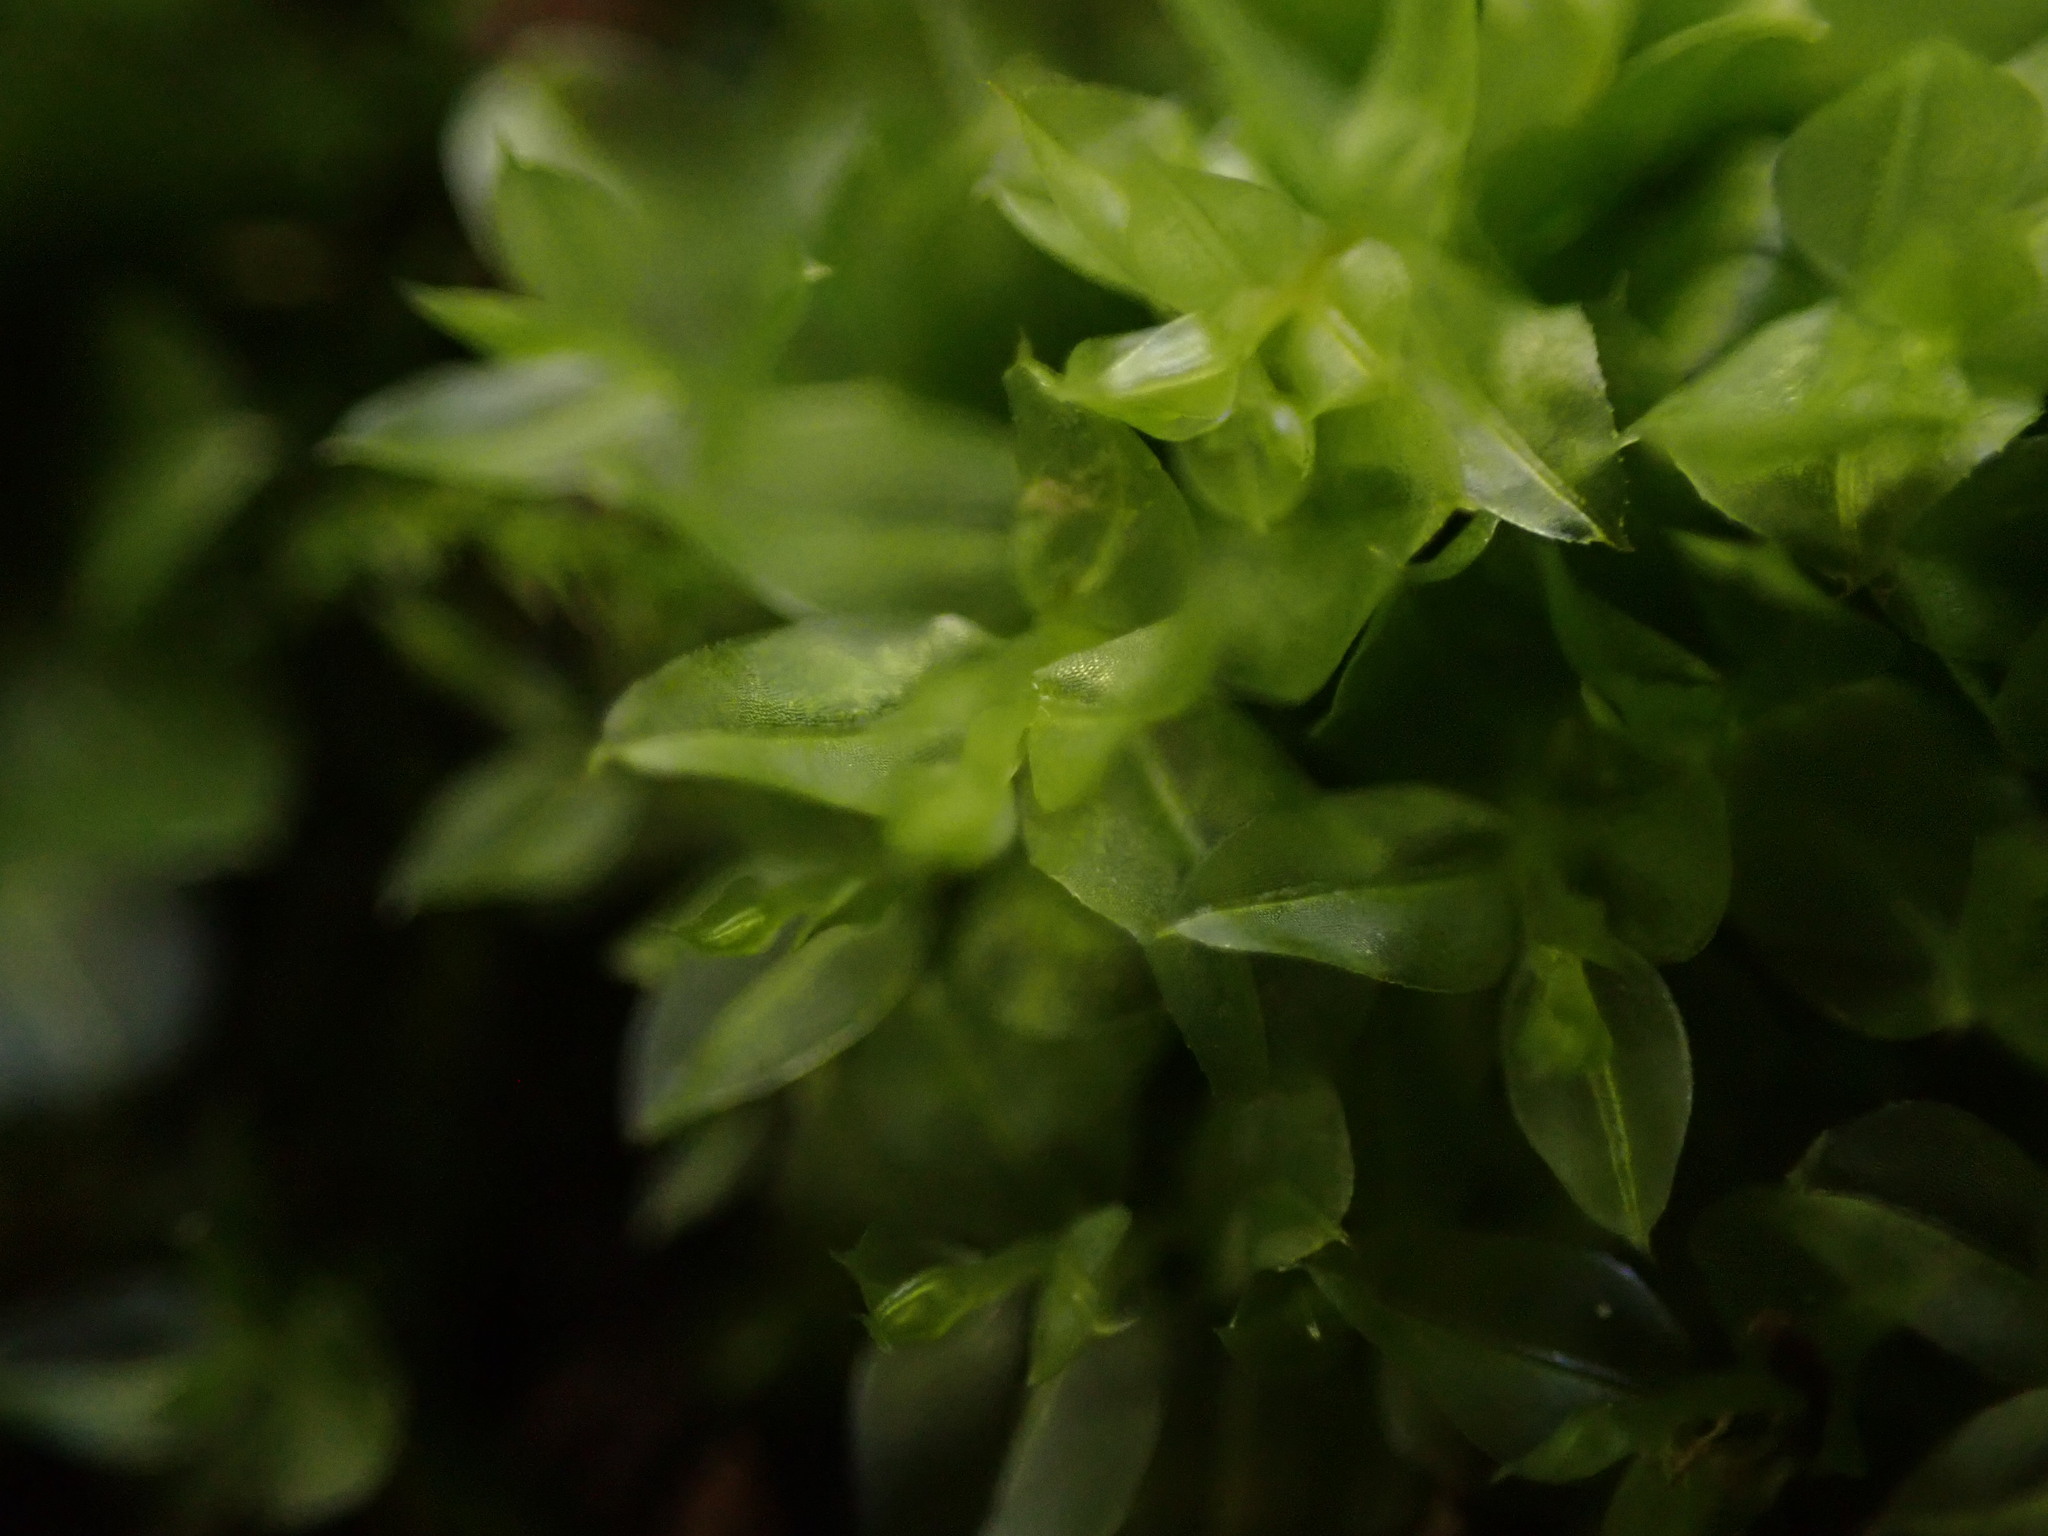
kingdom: Plantae
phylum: Bryophyta
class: Bryopsida
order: Bryales
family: Mniaceae
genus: Plagiomnium
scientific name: Plagiomnium ellipticum
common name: Marsh leafy moss
